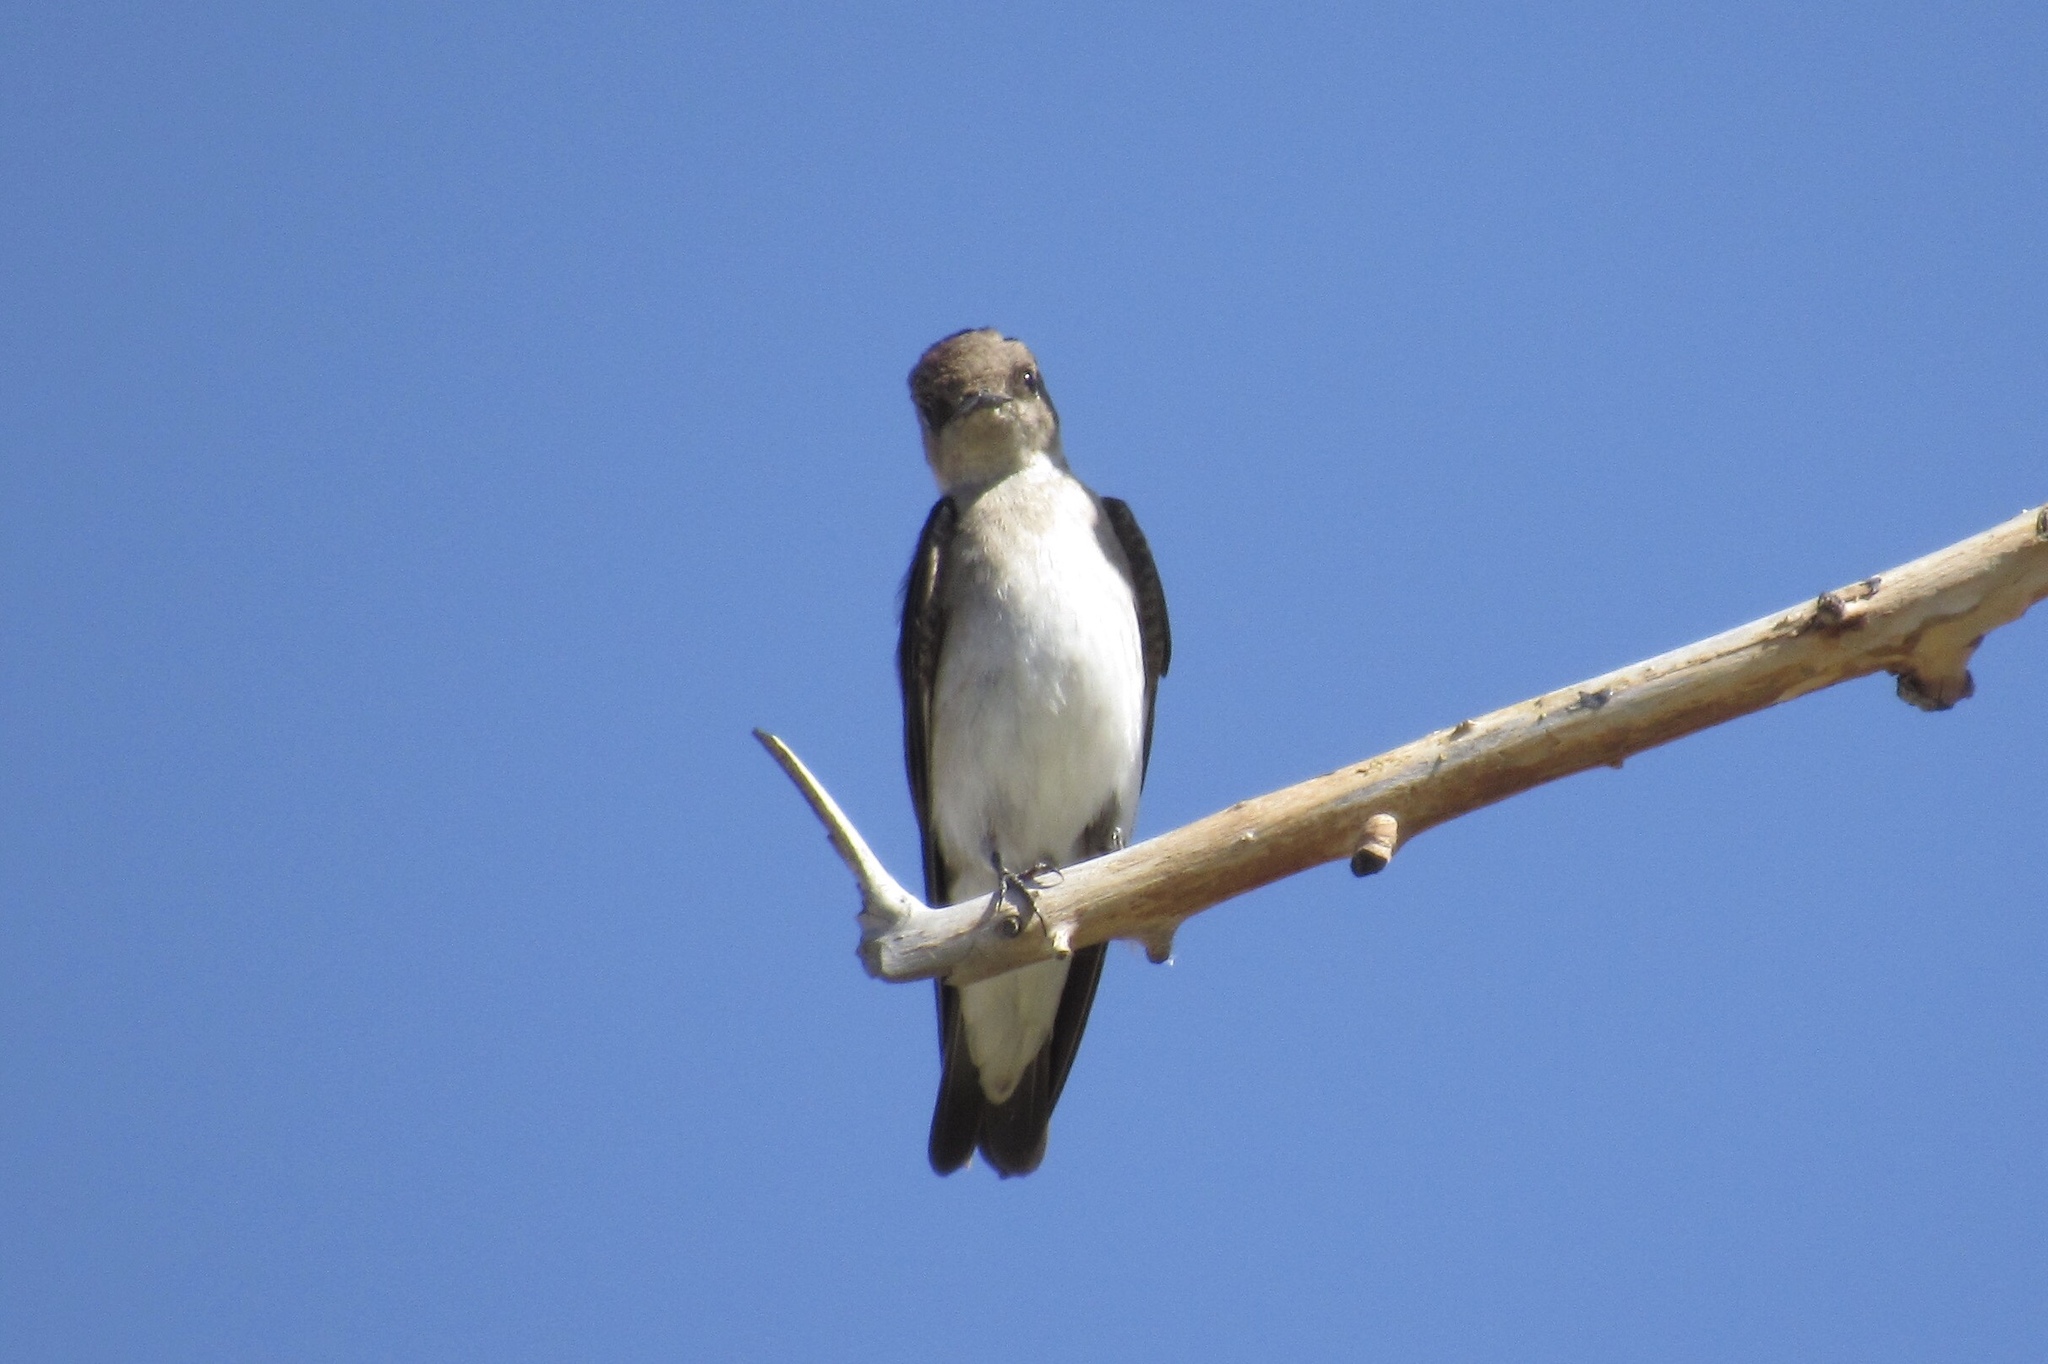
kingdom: Animalia
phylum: Chordata
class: Aves
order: Passeriformes
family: Hirundinidae
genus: Stelgidopteryx
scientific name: Stelgidopteryx serripennis
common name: Northern rough-winged swallow
